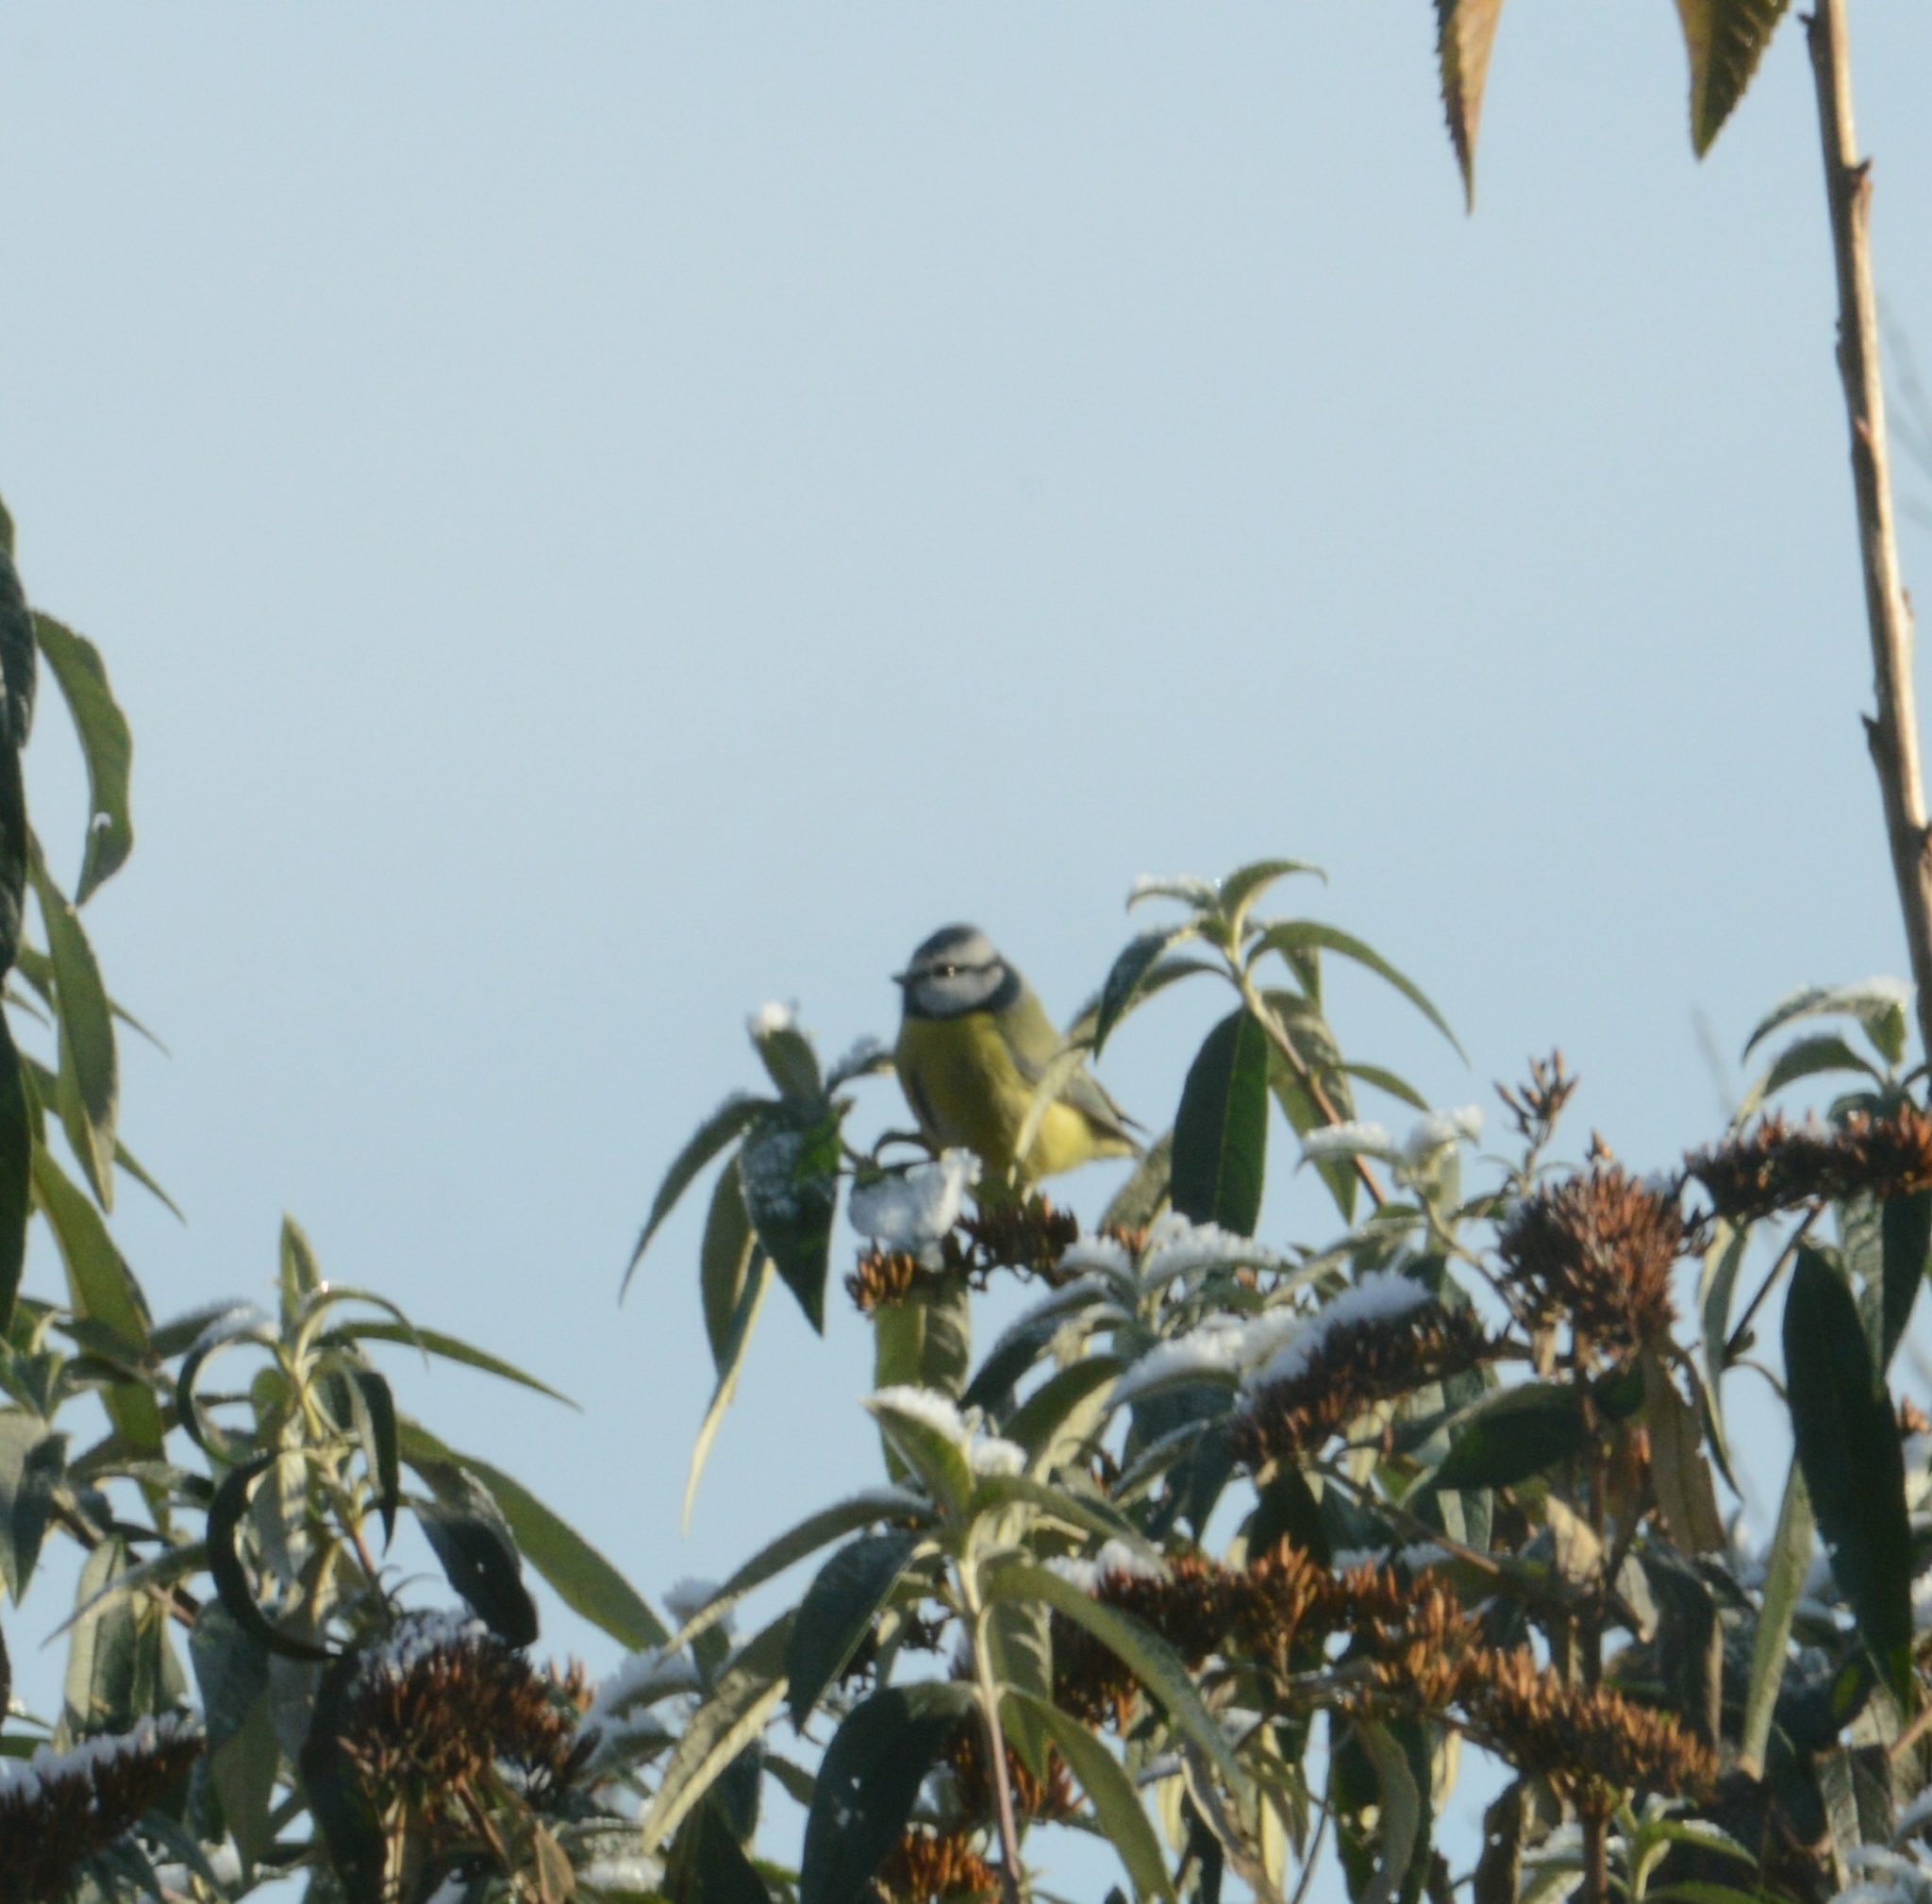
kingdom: Animalia
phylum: Chordata
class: Aves
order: Passeriformes
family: Paridae
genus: Cyanistes
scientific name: Cyanistes caeruleus
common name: Eurasian blue tit
